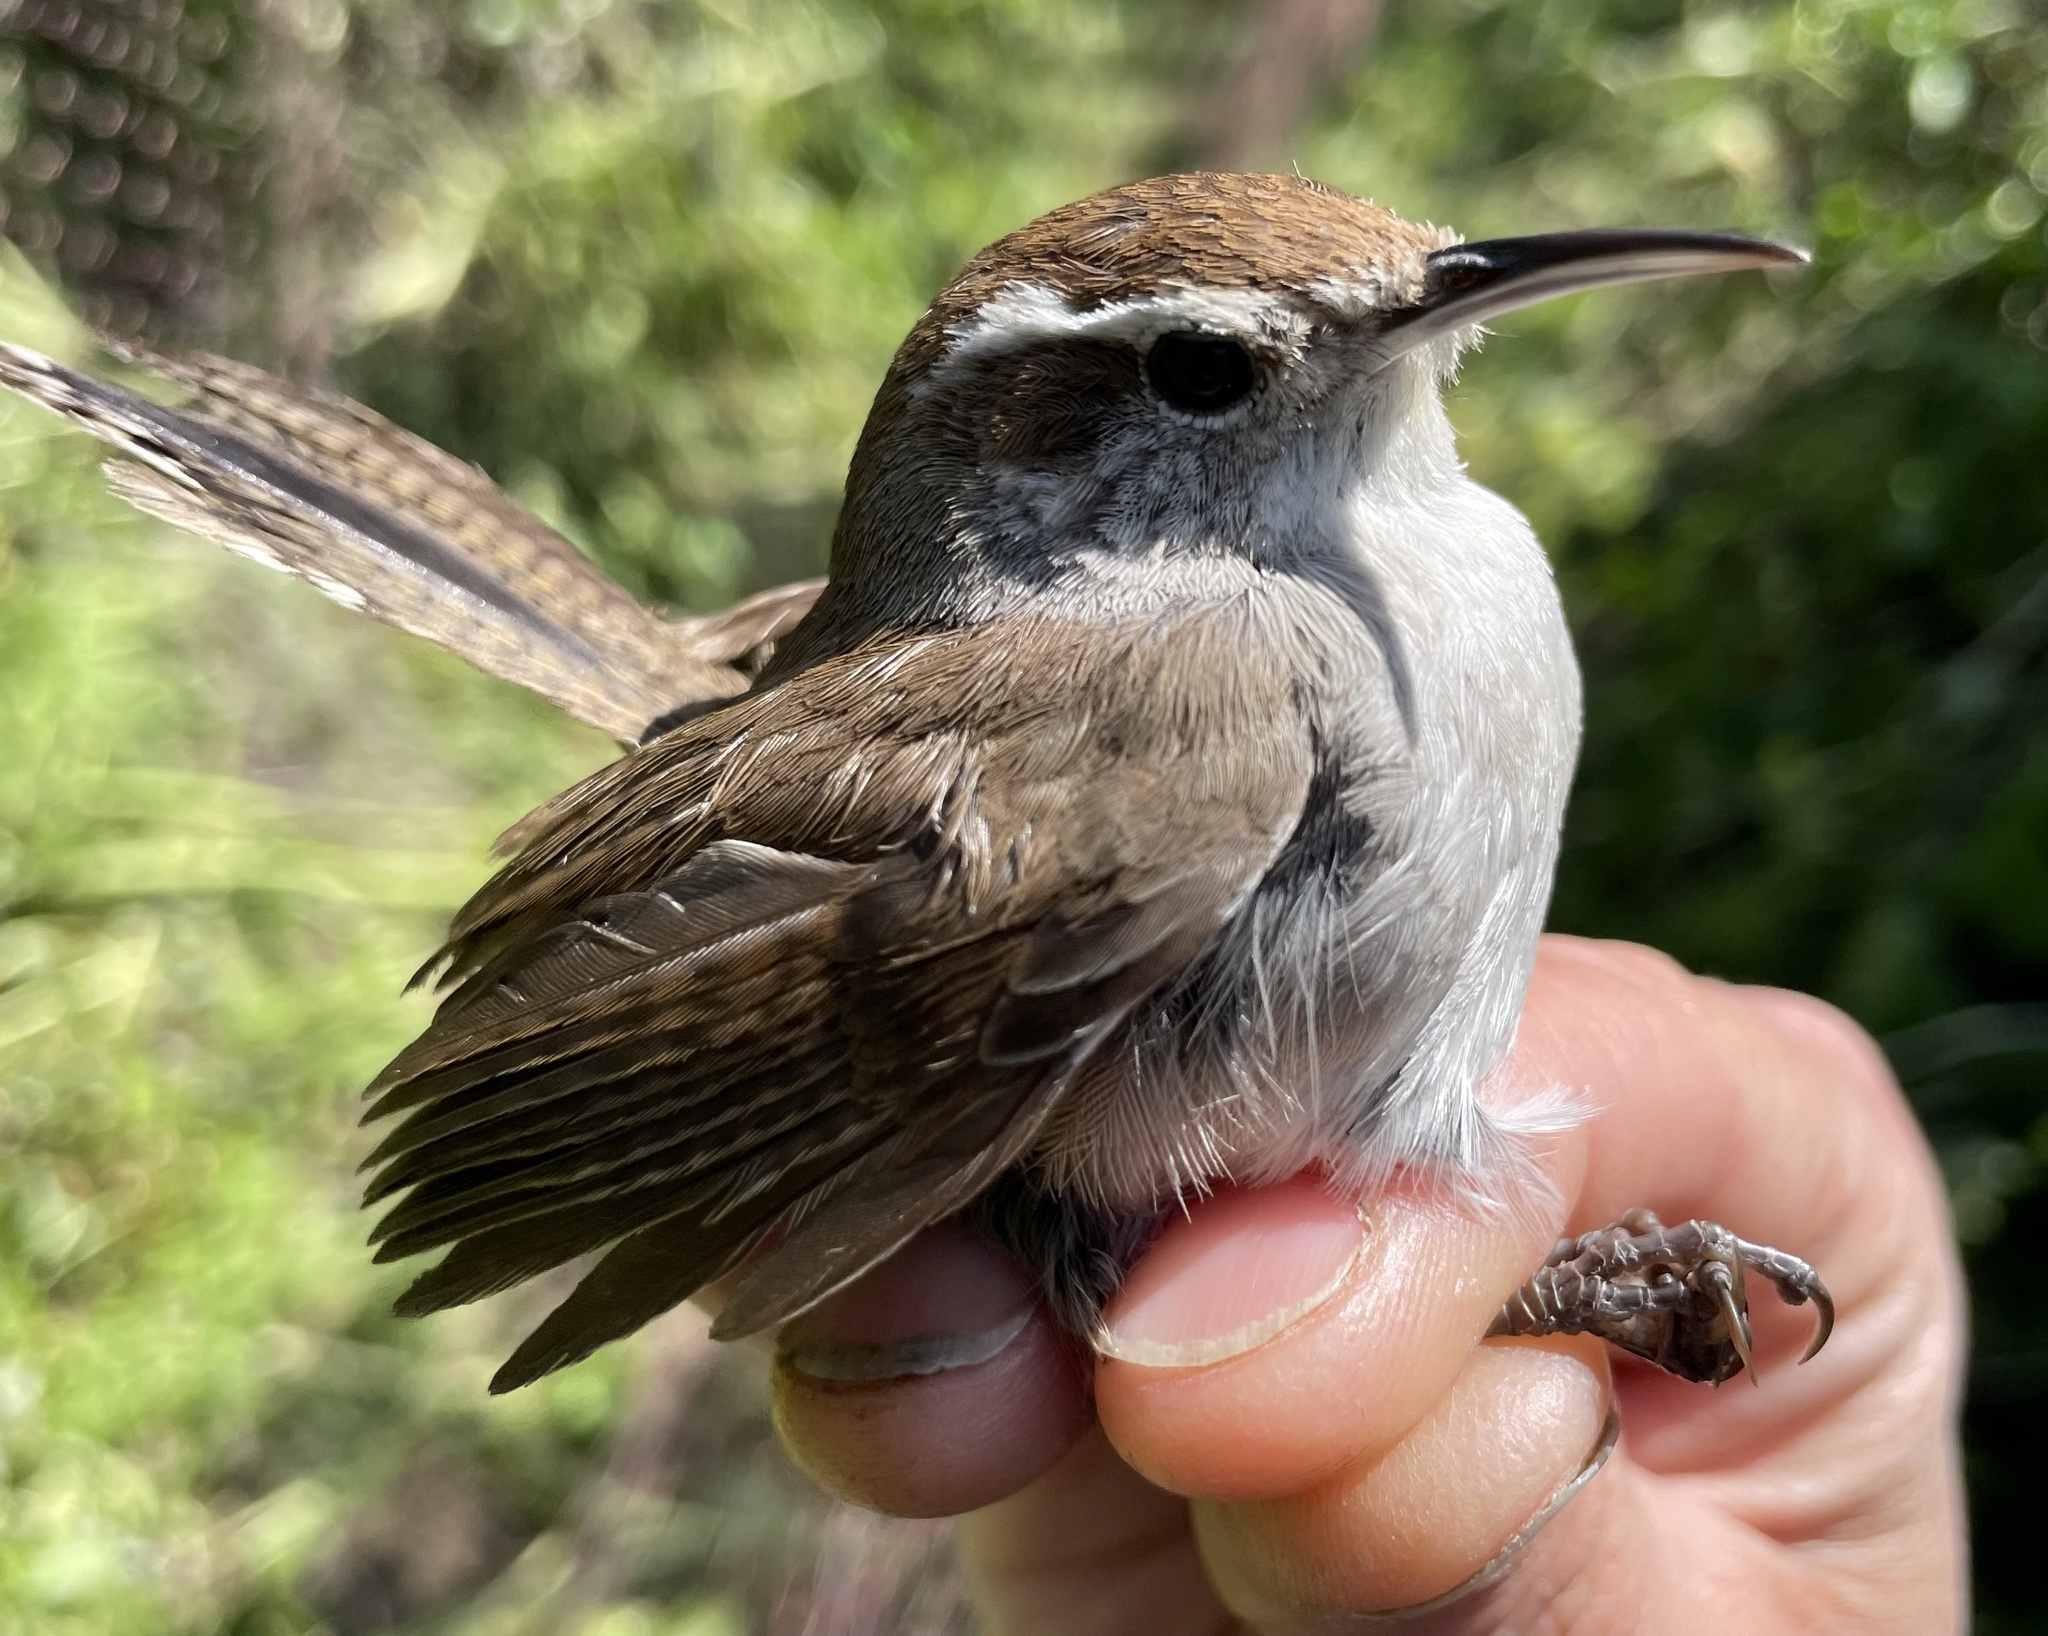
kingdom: Animalia
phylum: Chordata
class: Aves
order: Passeriformes
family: Troglodytidae
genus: Thryomanes
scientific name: Thryomanes bewickii
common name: Bewick's wren
